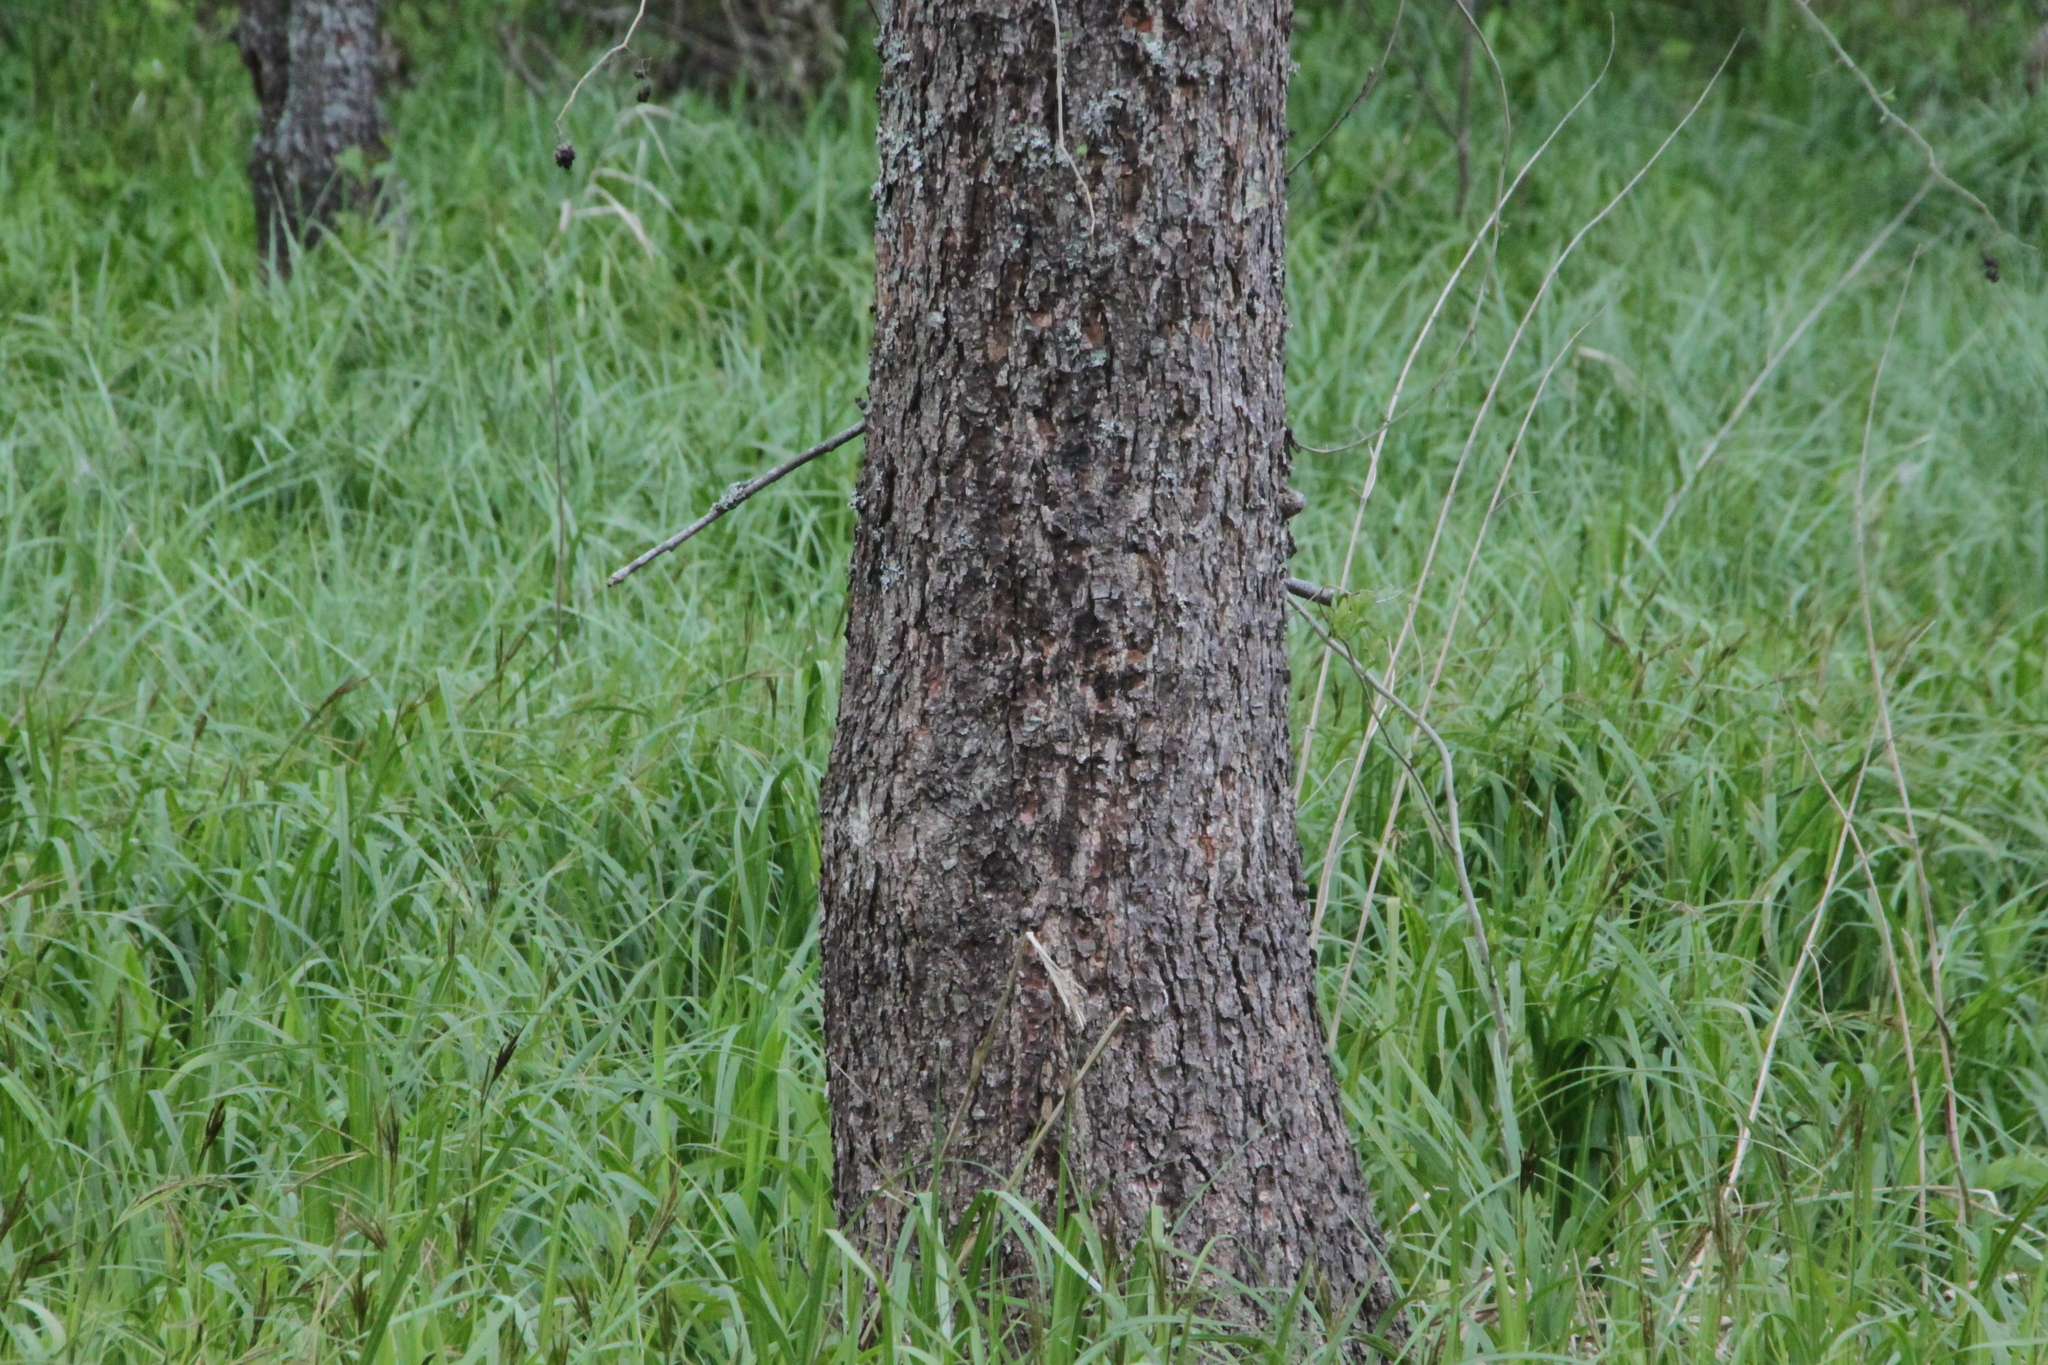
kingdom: Plantae
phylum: Tracheophyta
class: Magnoliopsida
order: Fagales
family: Betulaceae
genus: Alnus
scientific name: Alnus glutinosa
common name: Black alder
